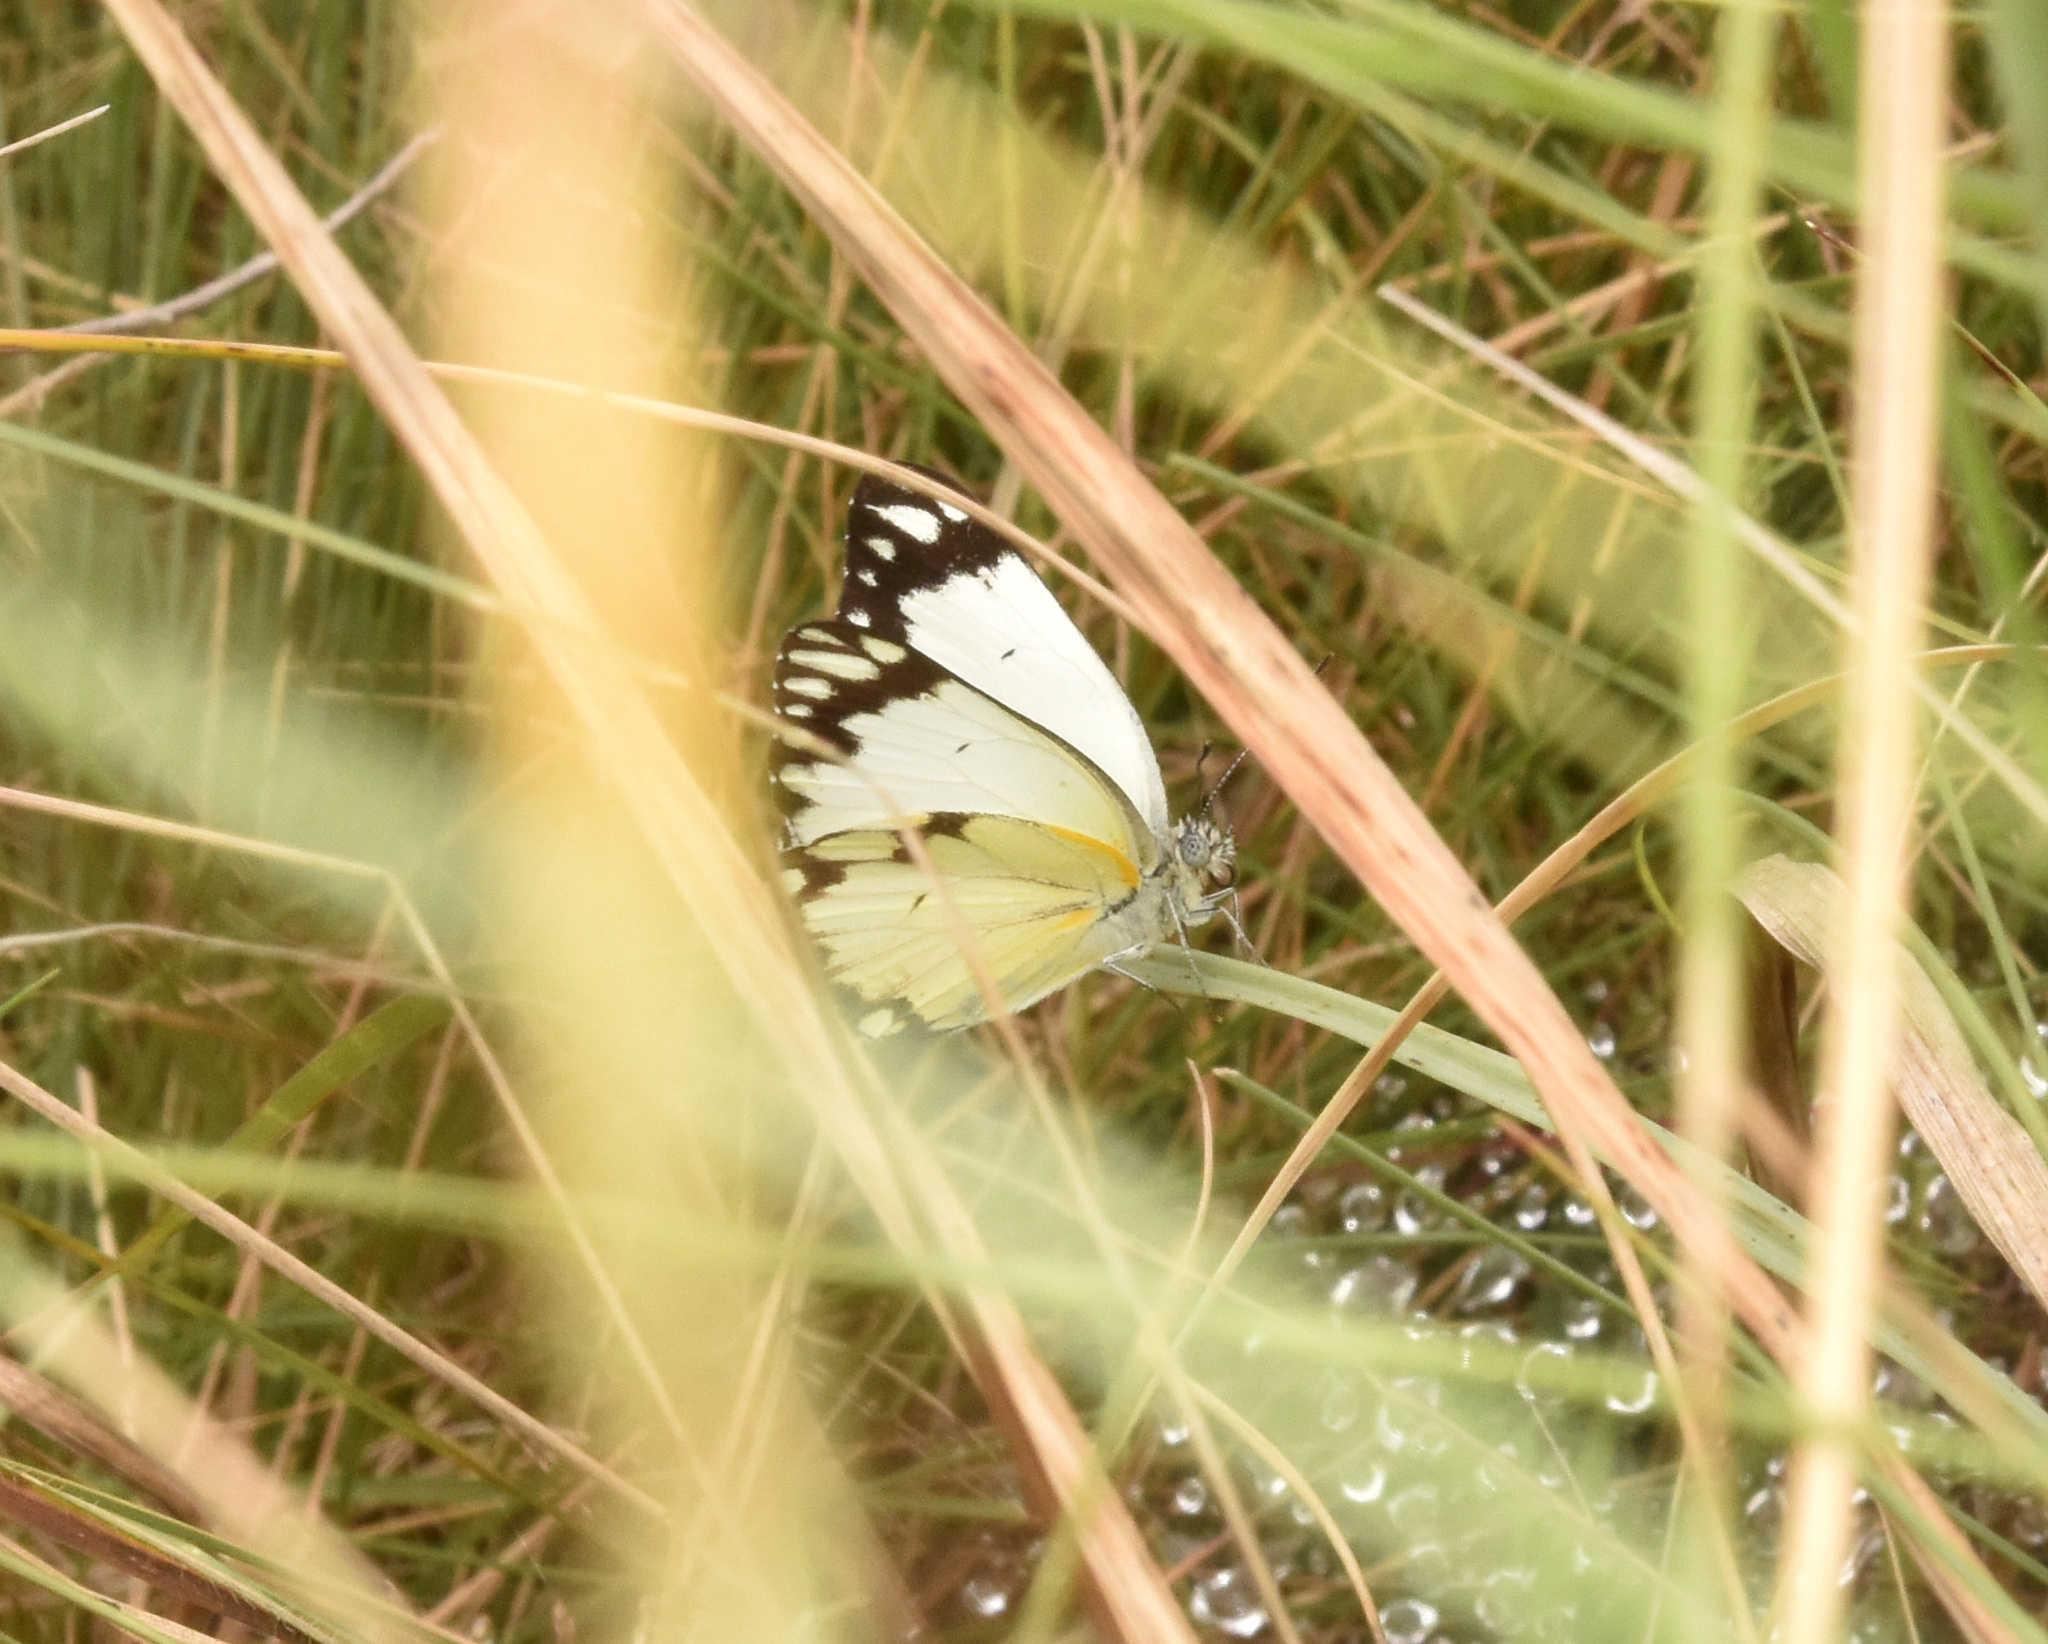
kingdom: Animalia
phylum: Arthropoda
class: Insecta
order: Lepidoptera
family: Pieridae
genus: Belenois
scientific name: Belenois creona
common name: African caper white
